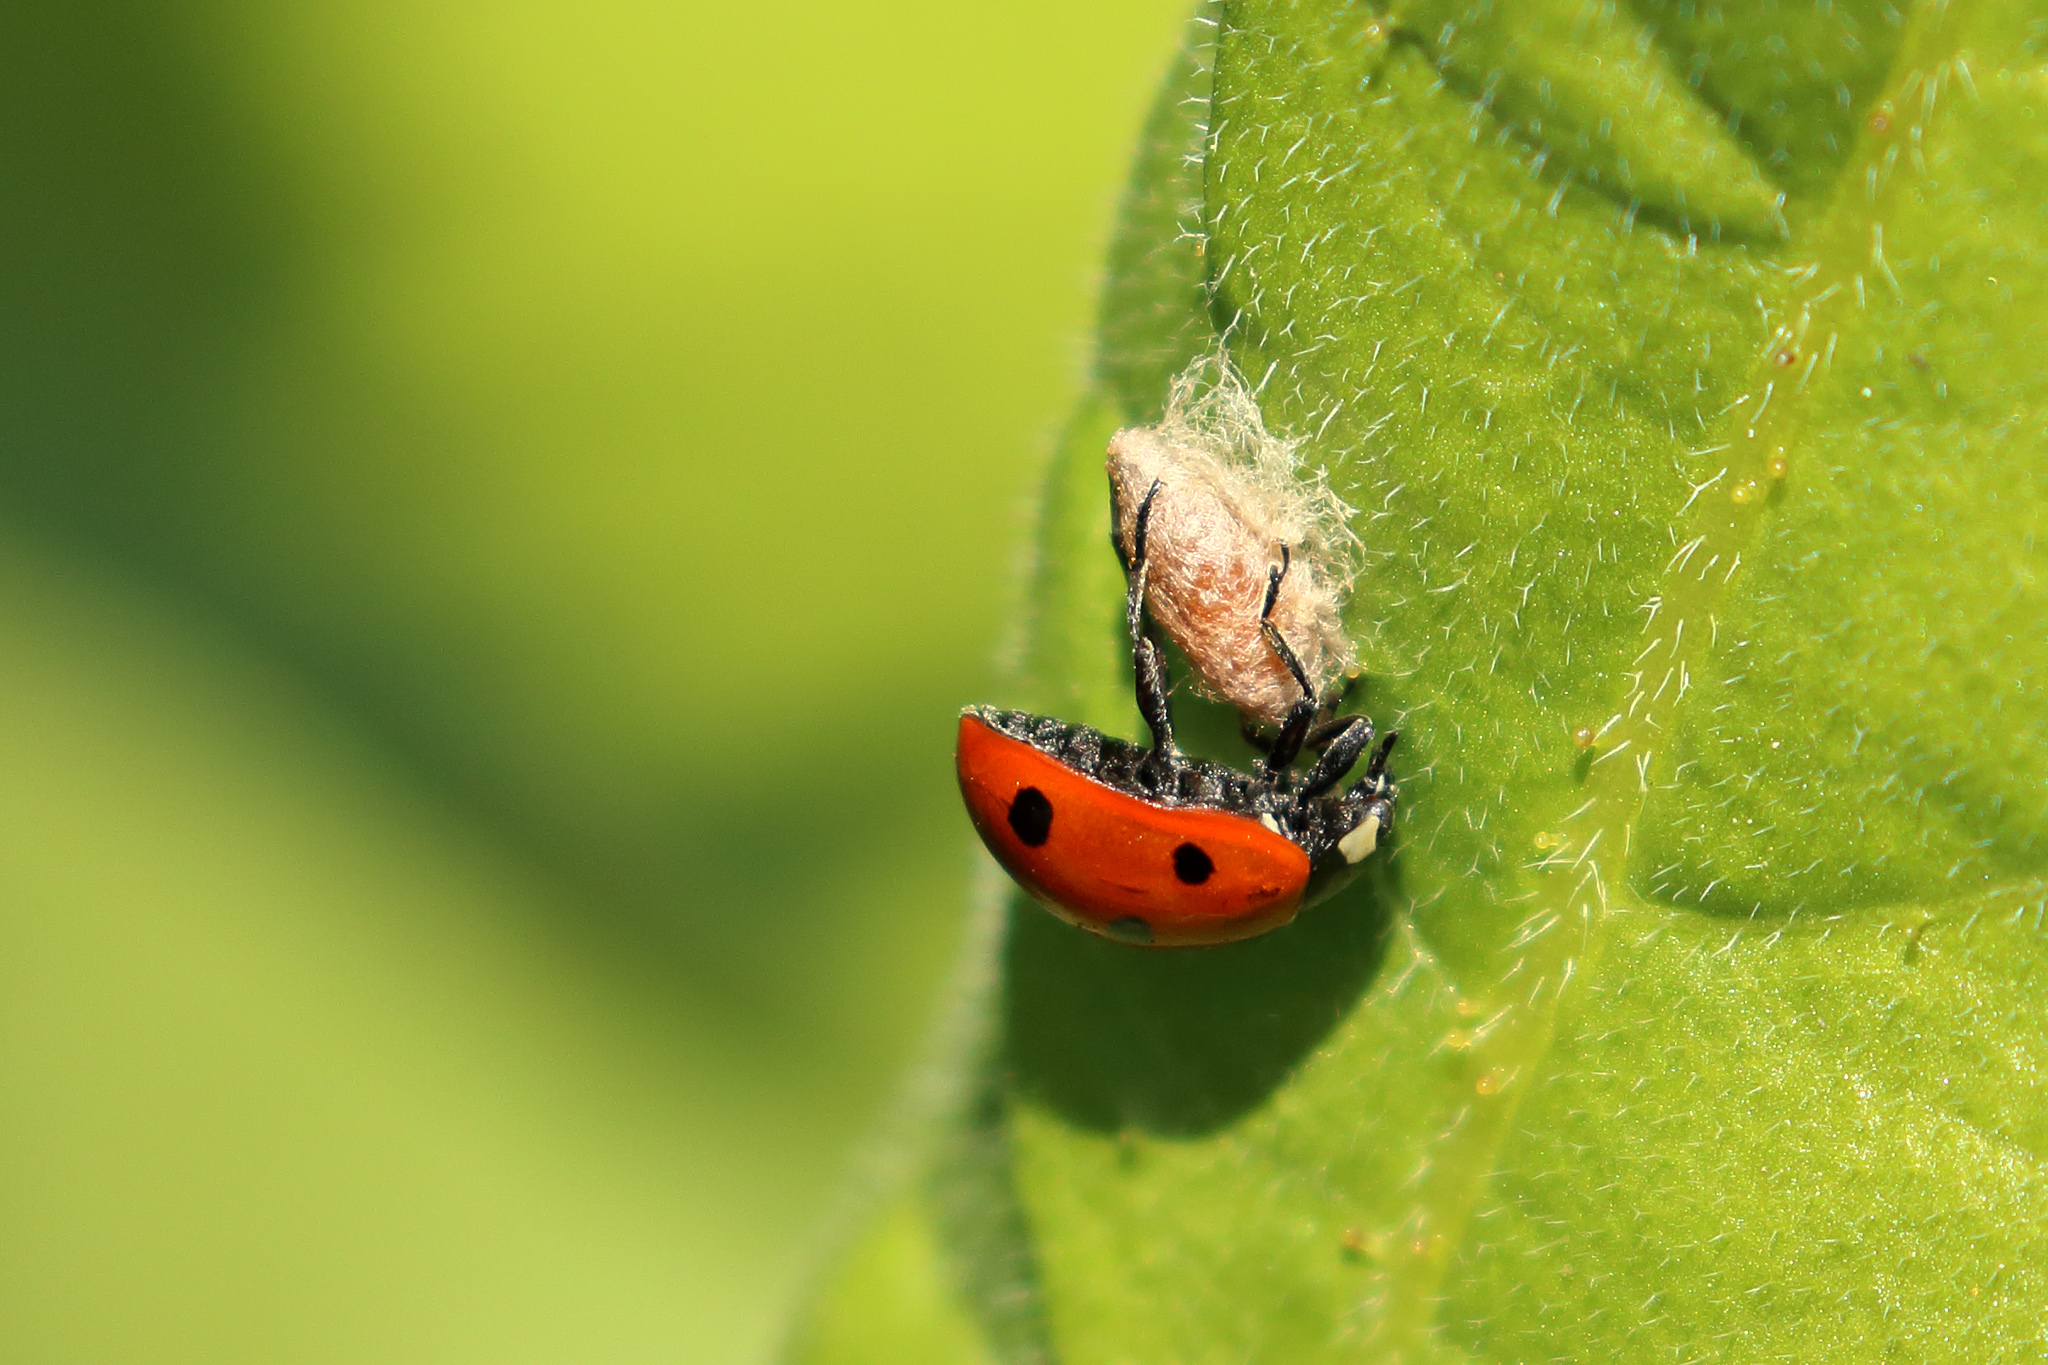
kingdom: Viruses
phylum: Pisuviricota
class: Pisoniviricetes
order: Picornavirales
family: Iflaviridae
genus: Iflavirus
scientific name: Iflavirus dinococcinellae
